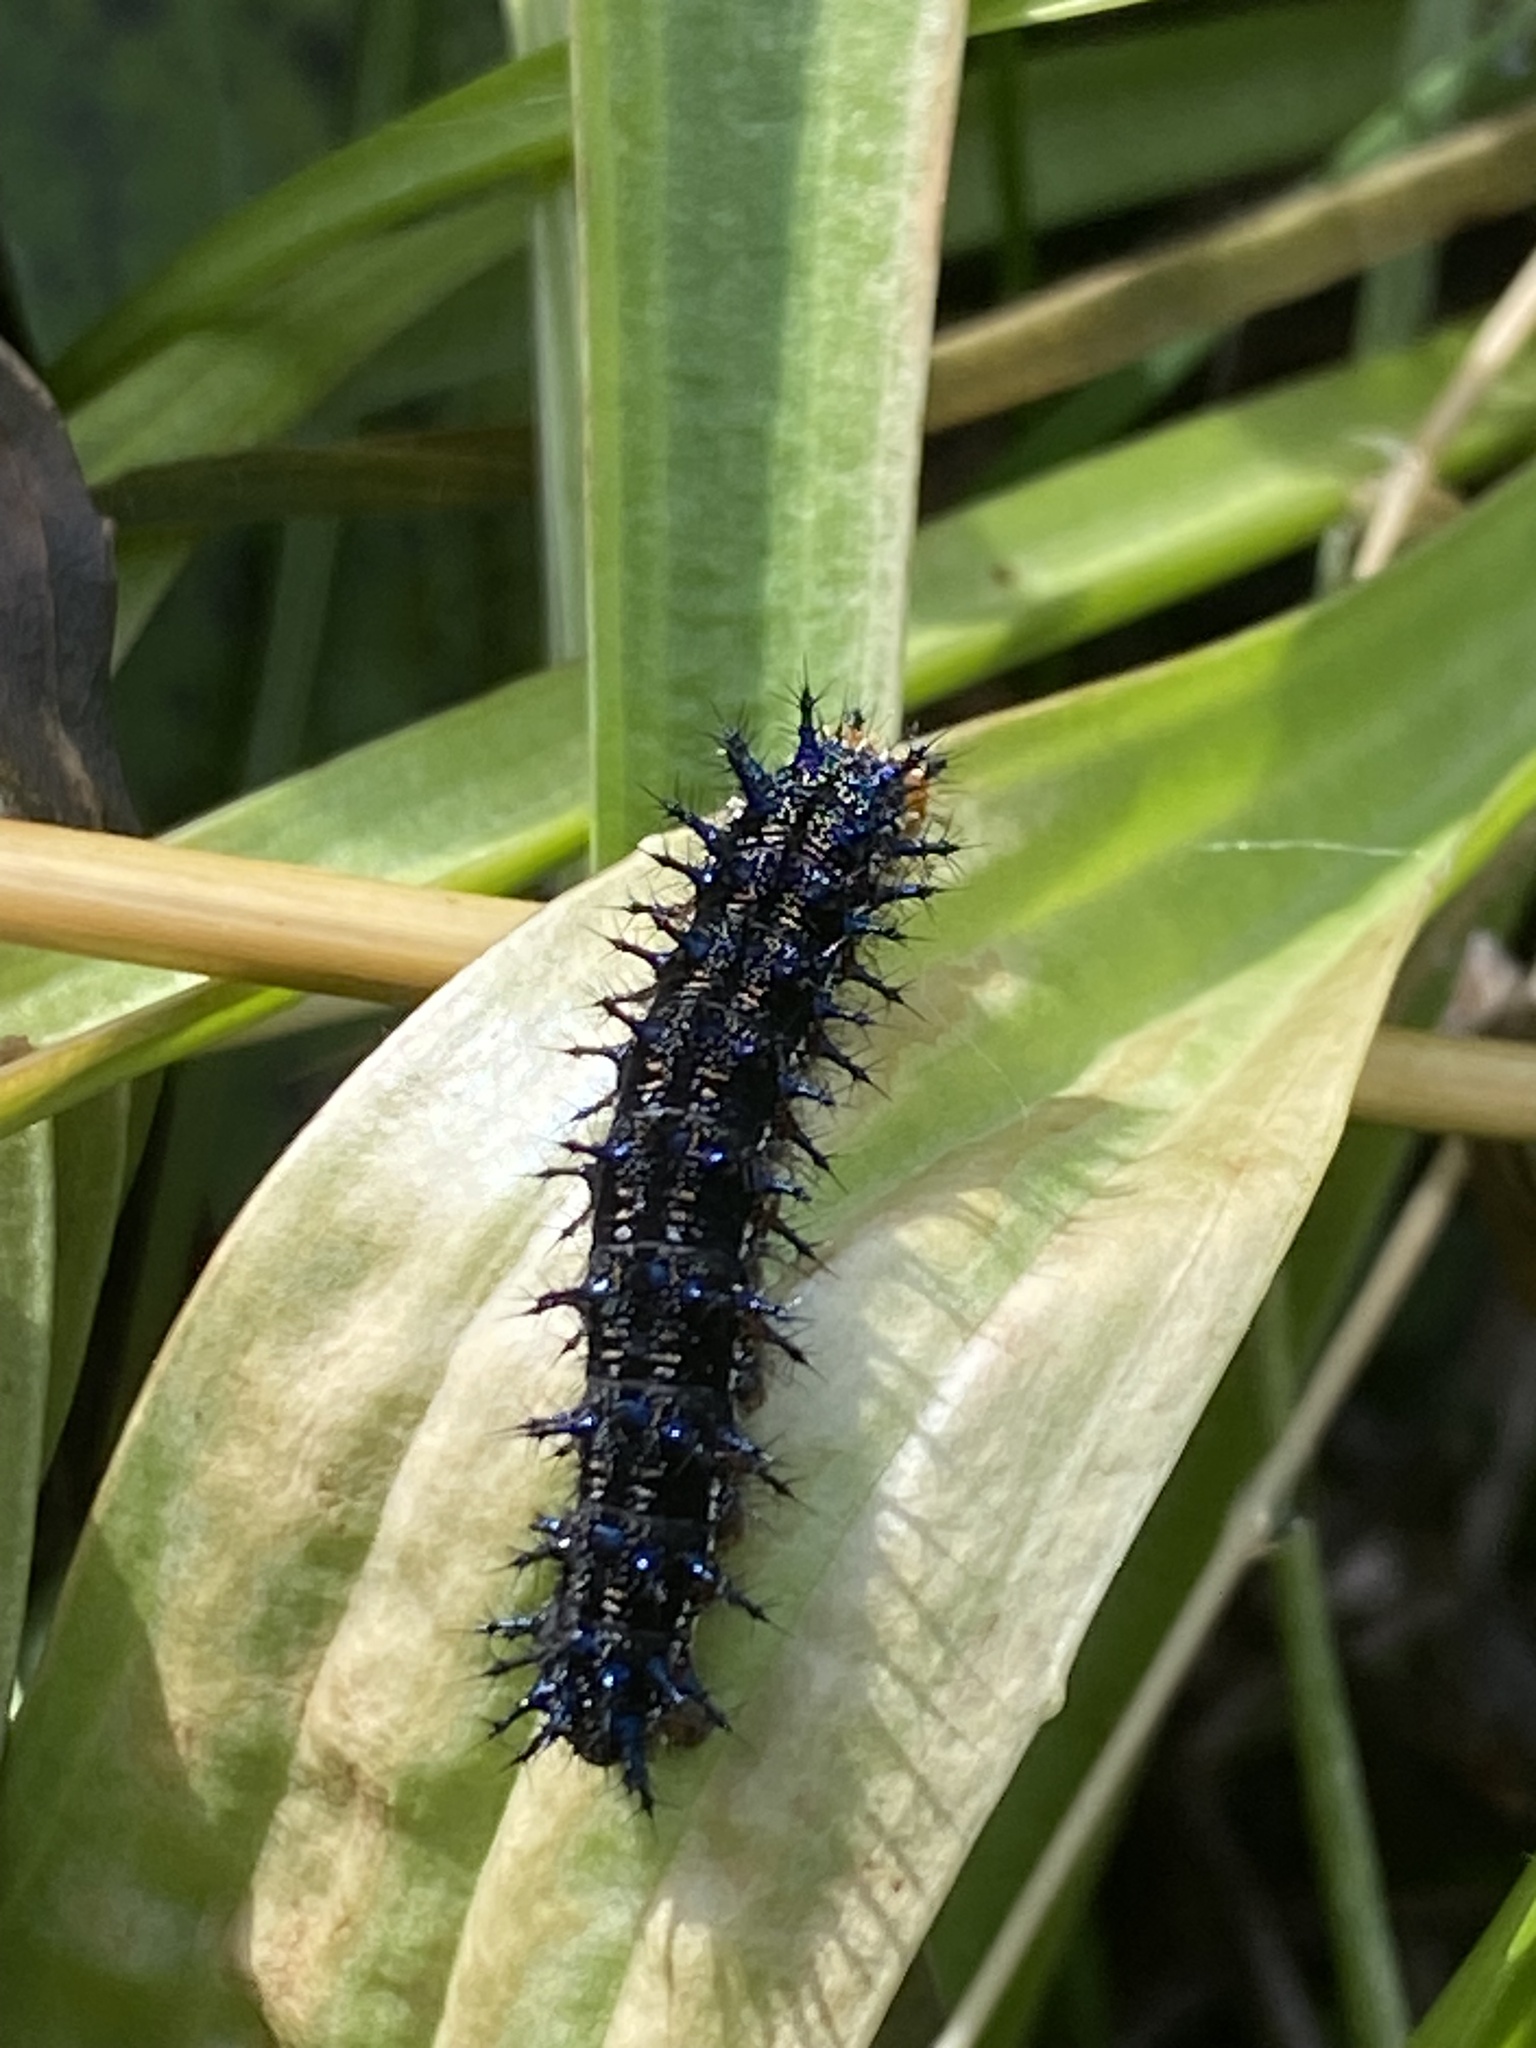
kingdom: Animalia
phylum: Arthropoda
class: Insecta
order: Lepidoptera
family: Nymphalidae
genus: Junonia
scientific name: Junonia coenia
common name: Common buckeye
